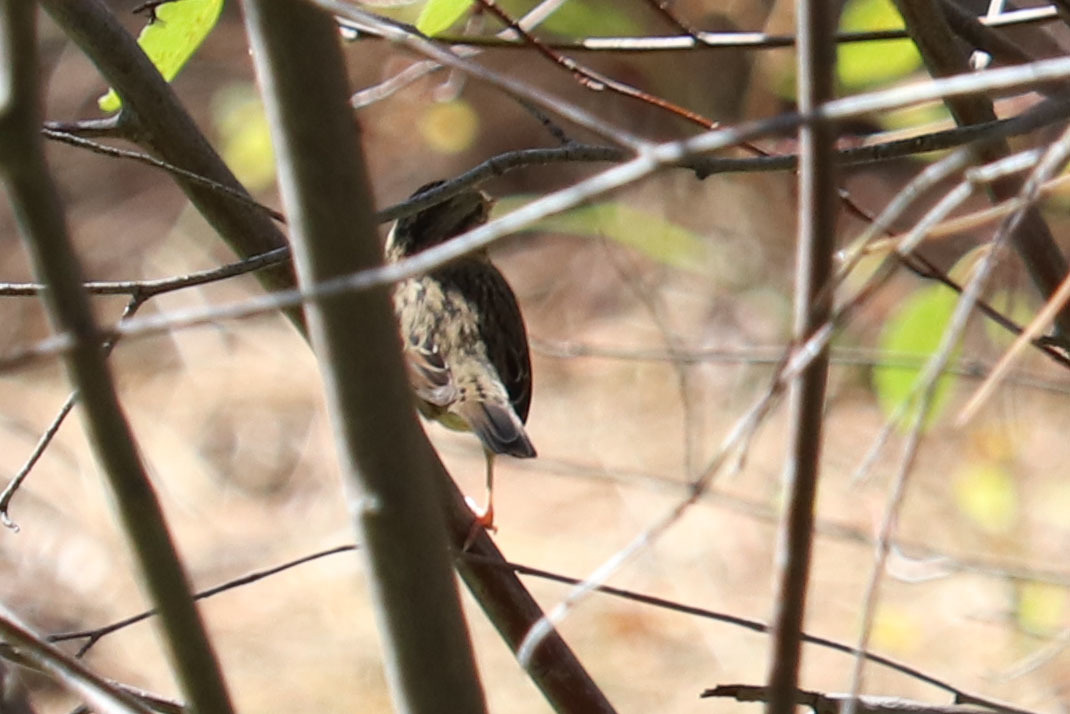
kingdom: Animalia
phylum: Chordata
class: Aves
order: Passeriformes
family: Passerellidae
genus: Melospiza
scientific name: Melospiza lincolnii
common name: Lincoln's sparrow
